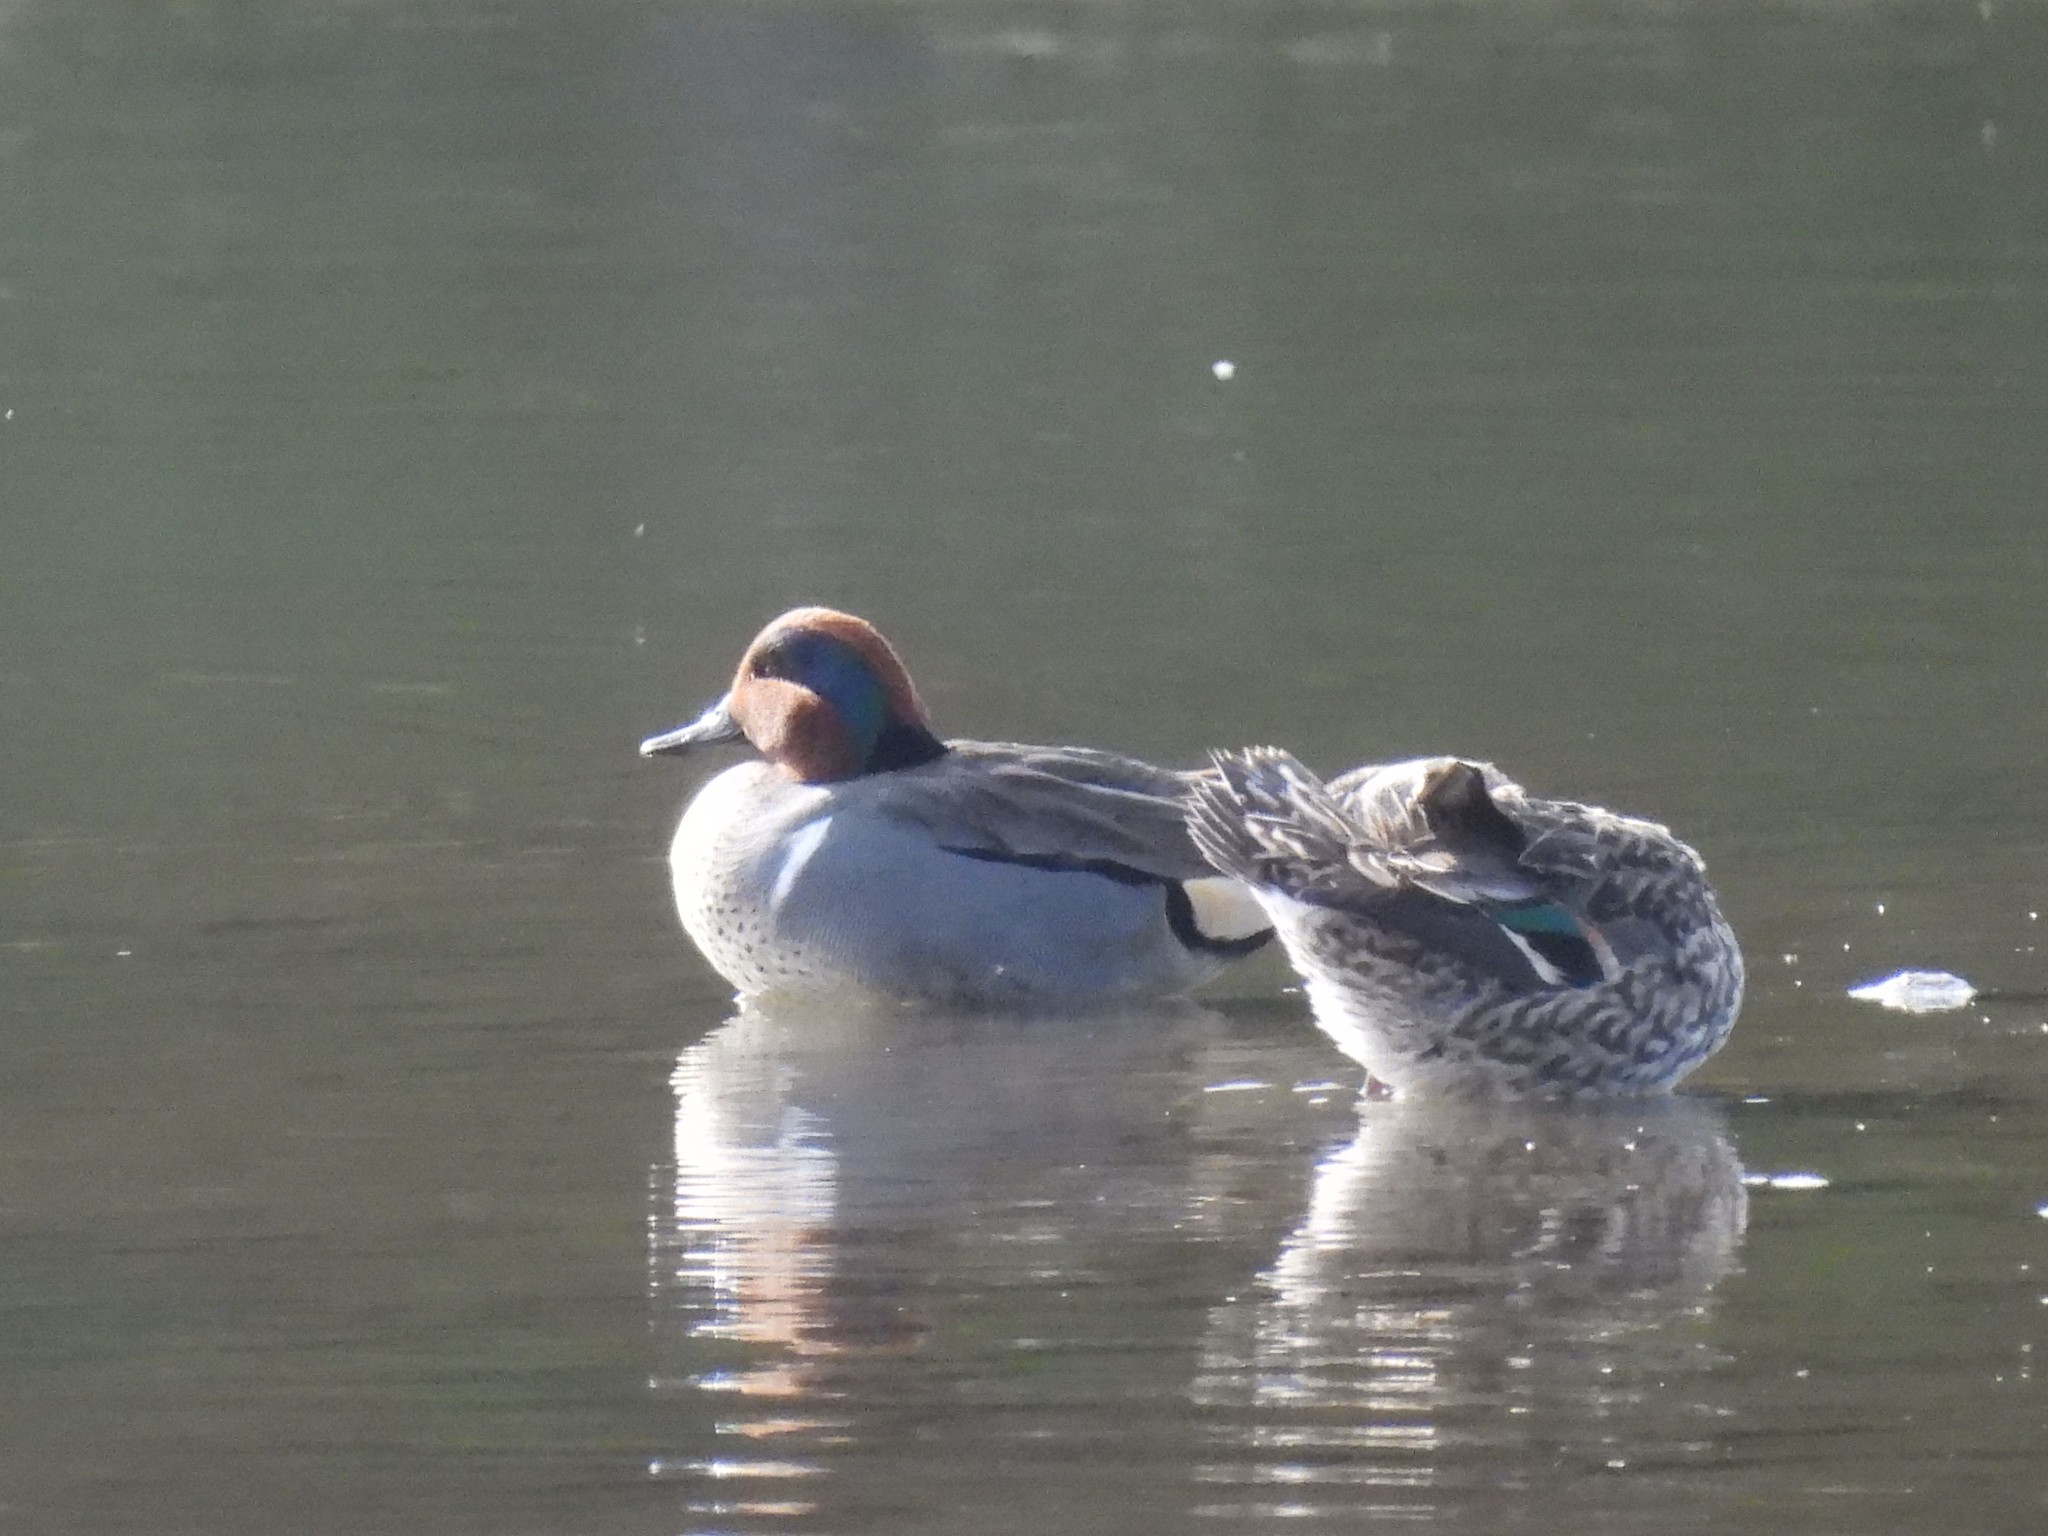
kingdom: Animalia
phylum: Chordata
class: Aves
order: Anseriformes
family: Anatidae
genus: Anas
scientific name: Anas crecca
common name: Eurasian teal
